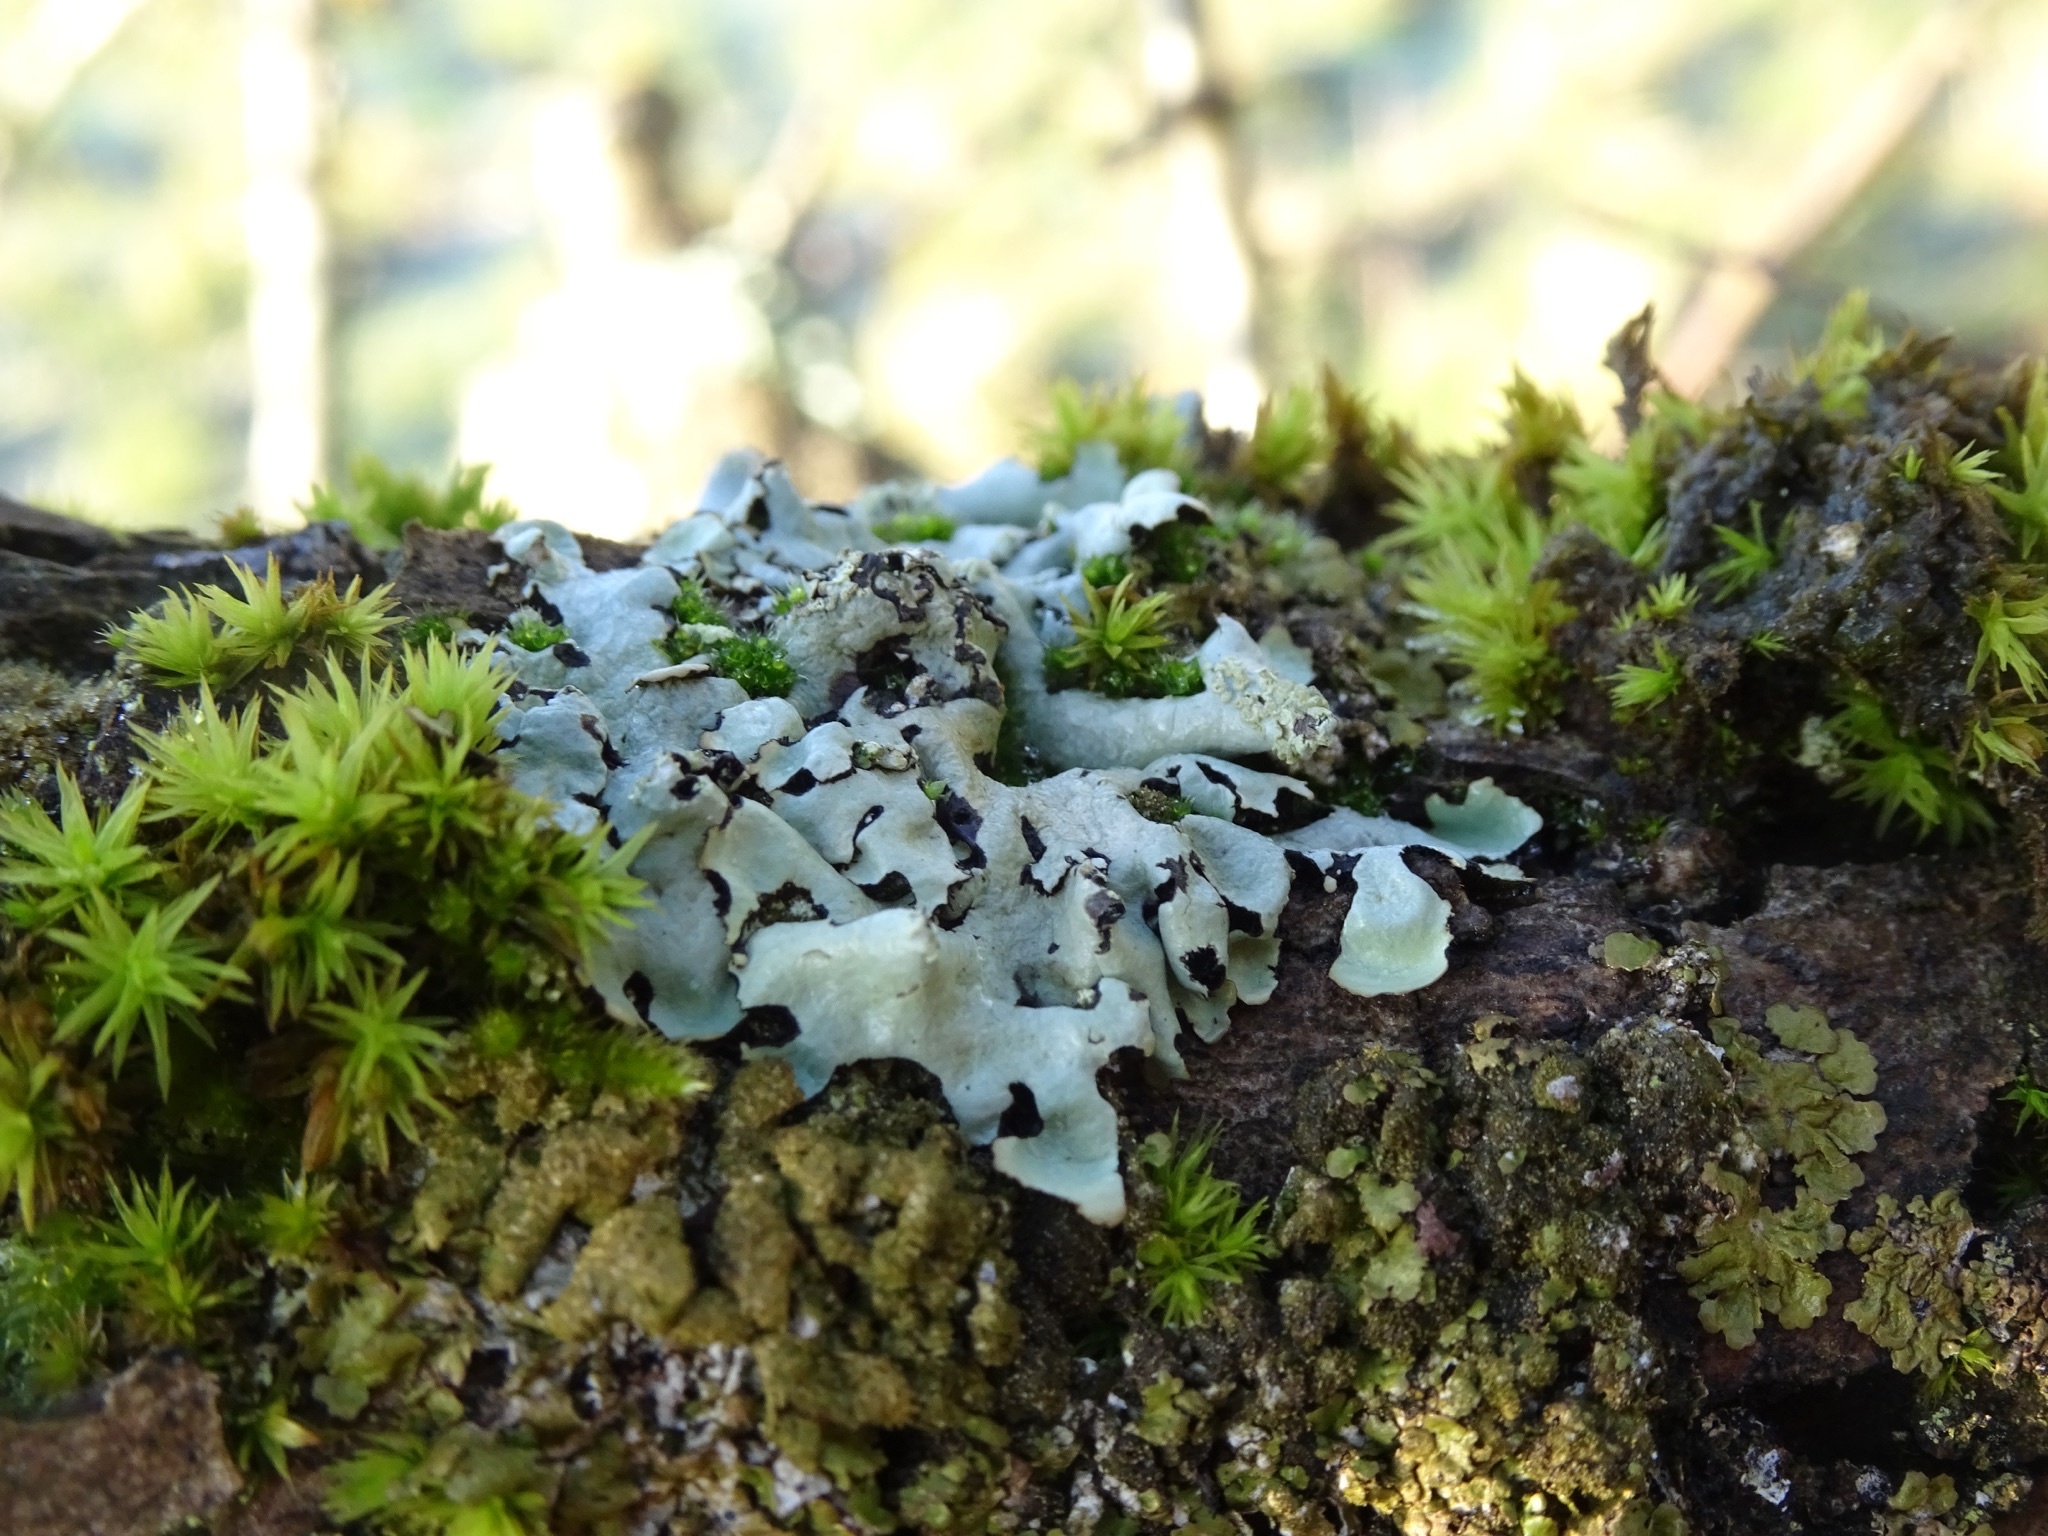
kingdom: Fungi
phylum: Ascomycota
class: Lecanoromycetes
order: Lecanorales
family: Parmeliaceae
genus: Parmelia
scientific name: Parmelia sulcata
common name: Netted shield lichen
